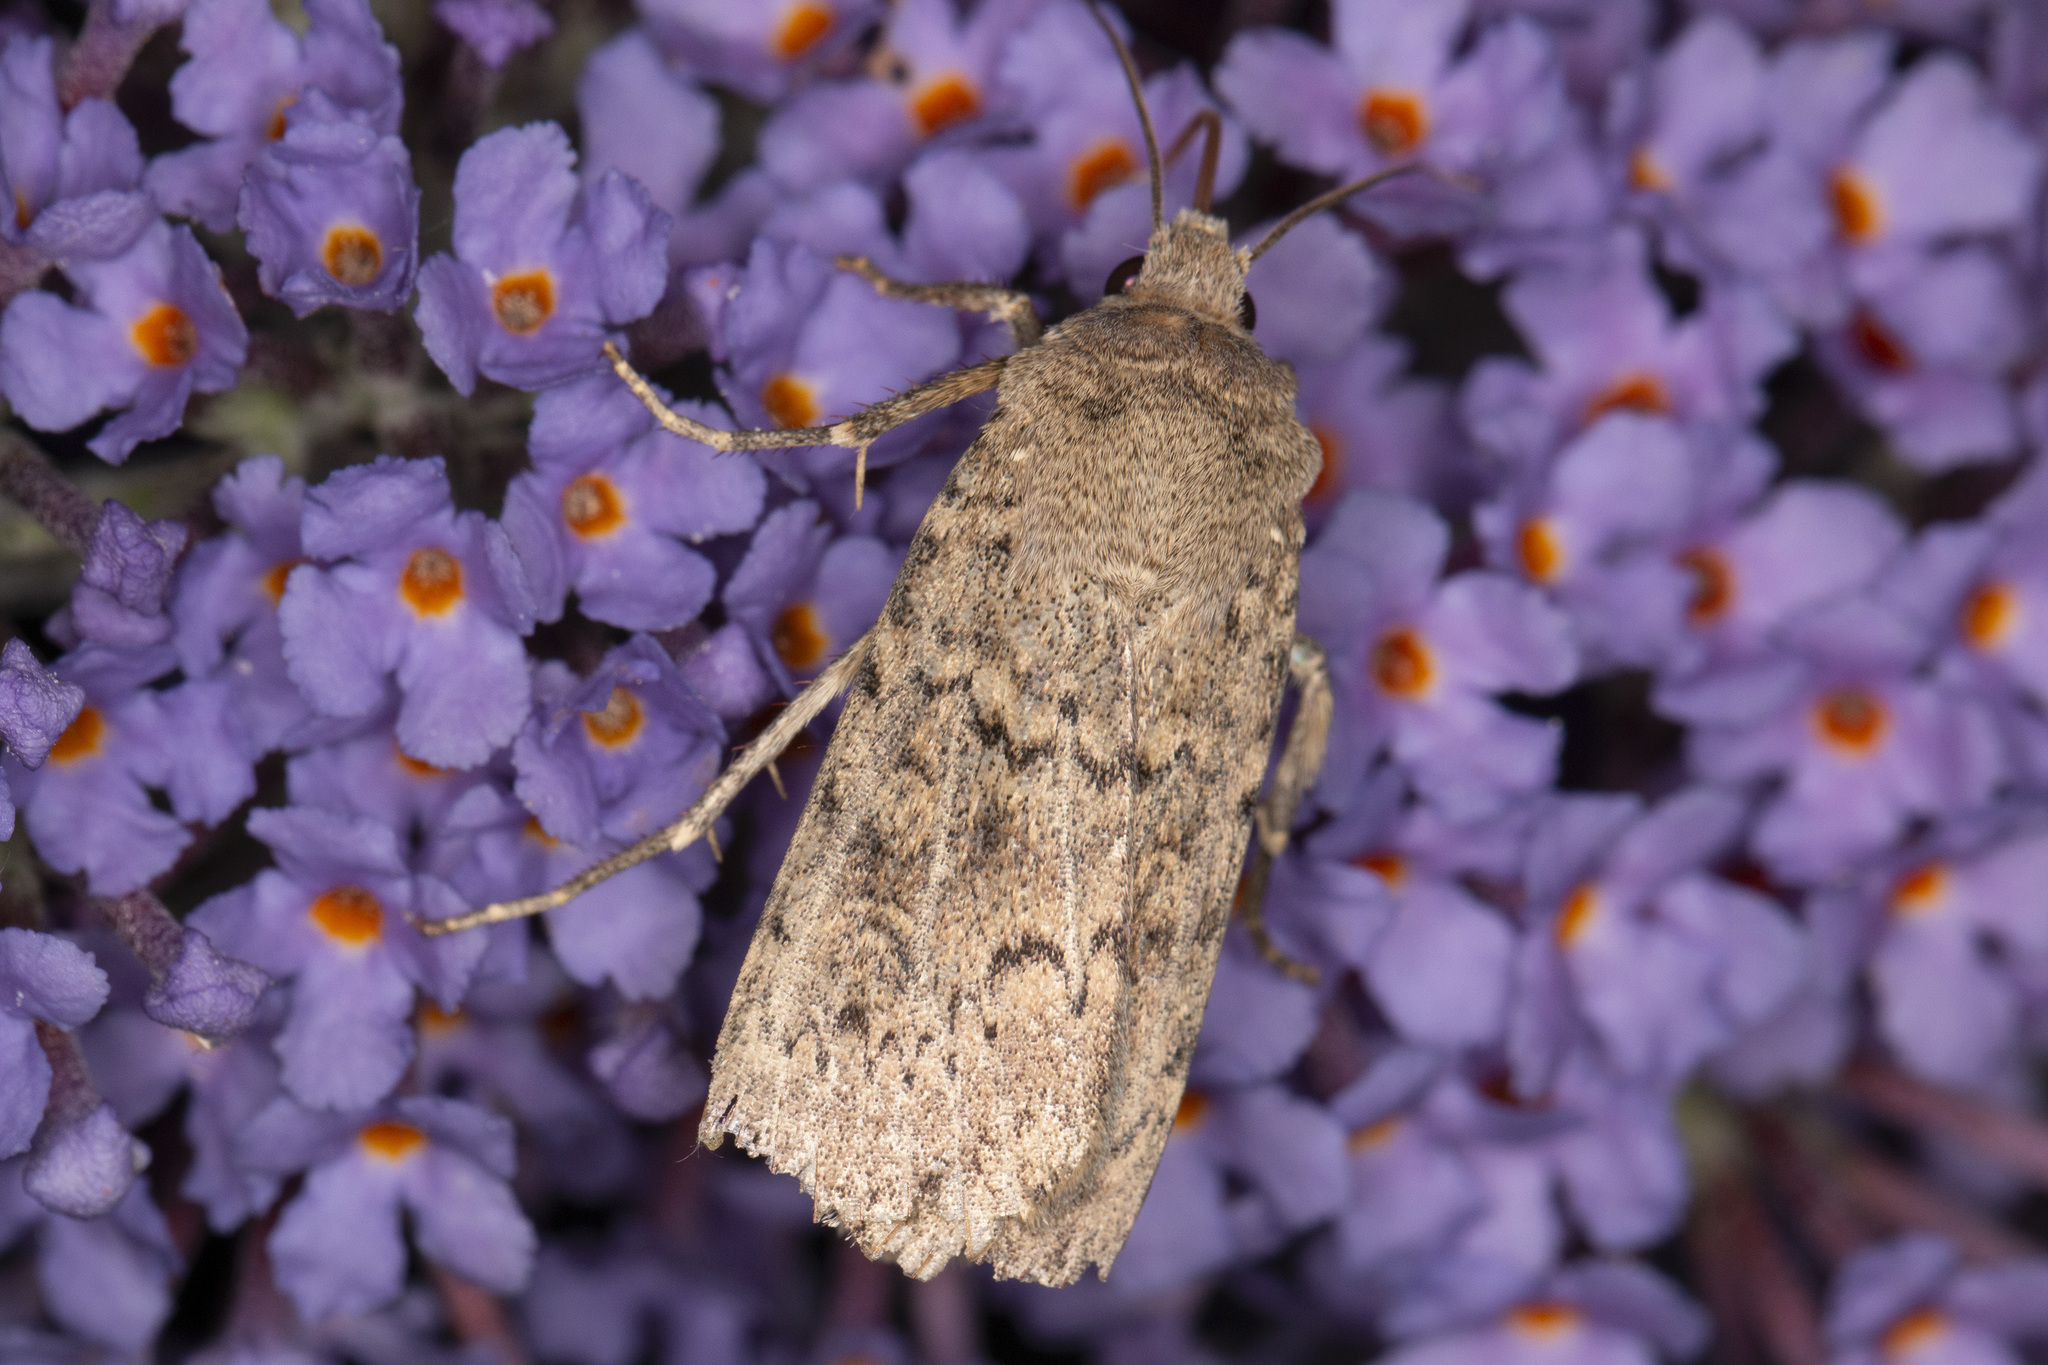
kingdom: Animalia
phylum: Arthropoda
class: Insecta
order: Lepidoptera
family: Noctuidae
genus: Rhyacia
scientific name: Rhyacia simulans
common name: Dotted rustic
